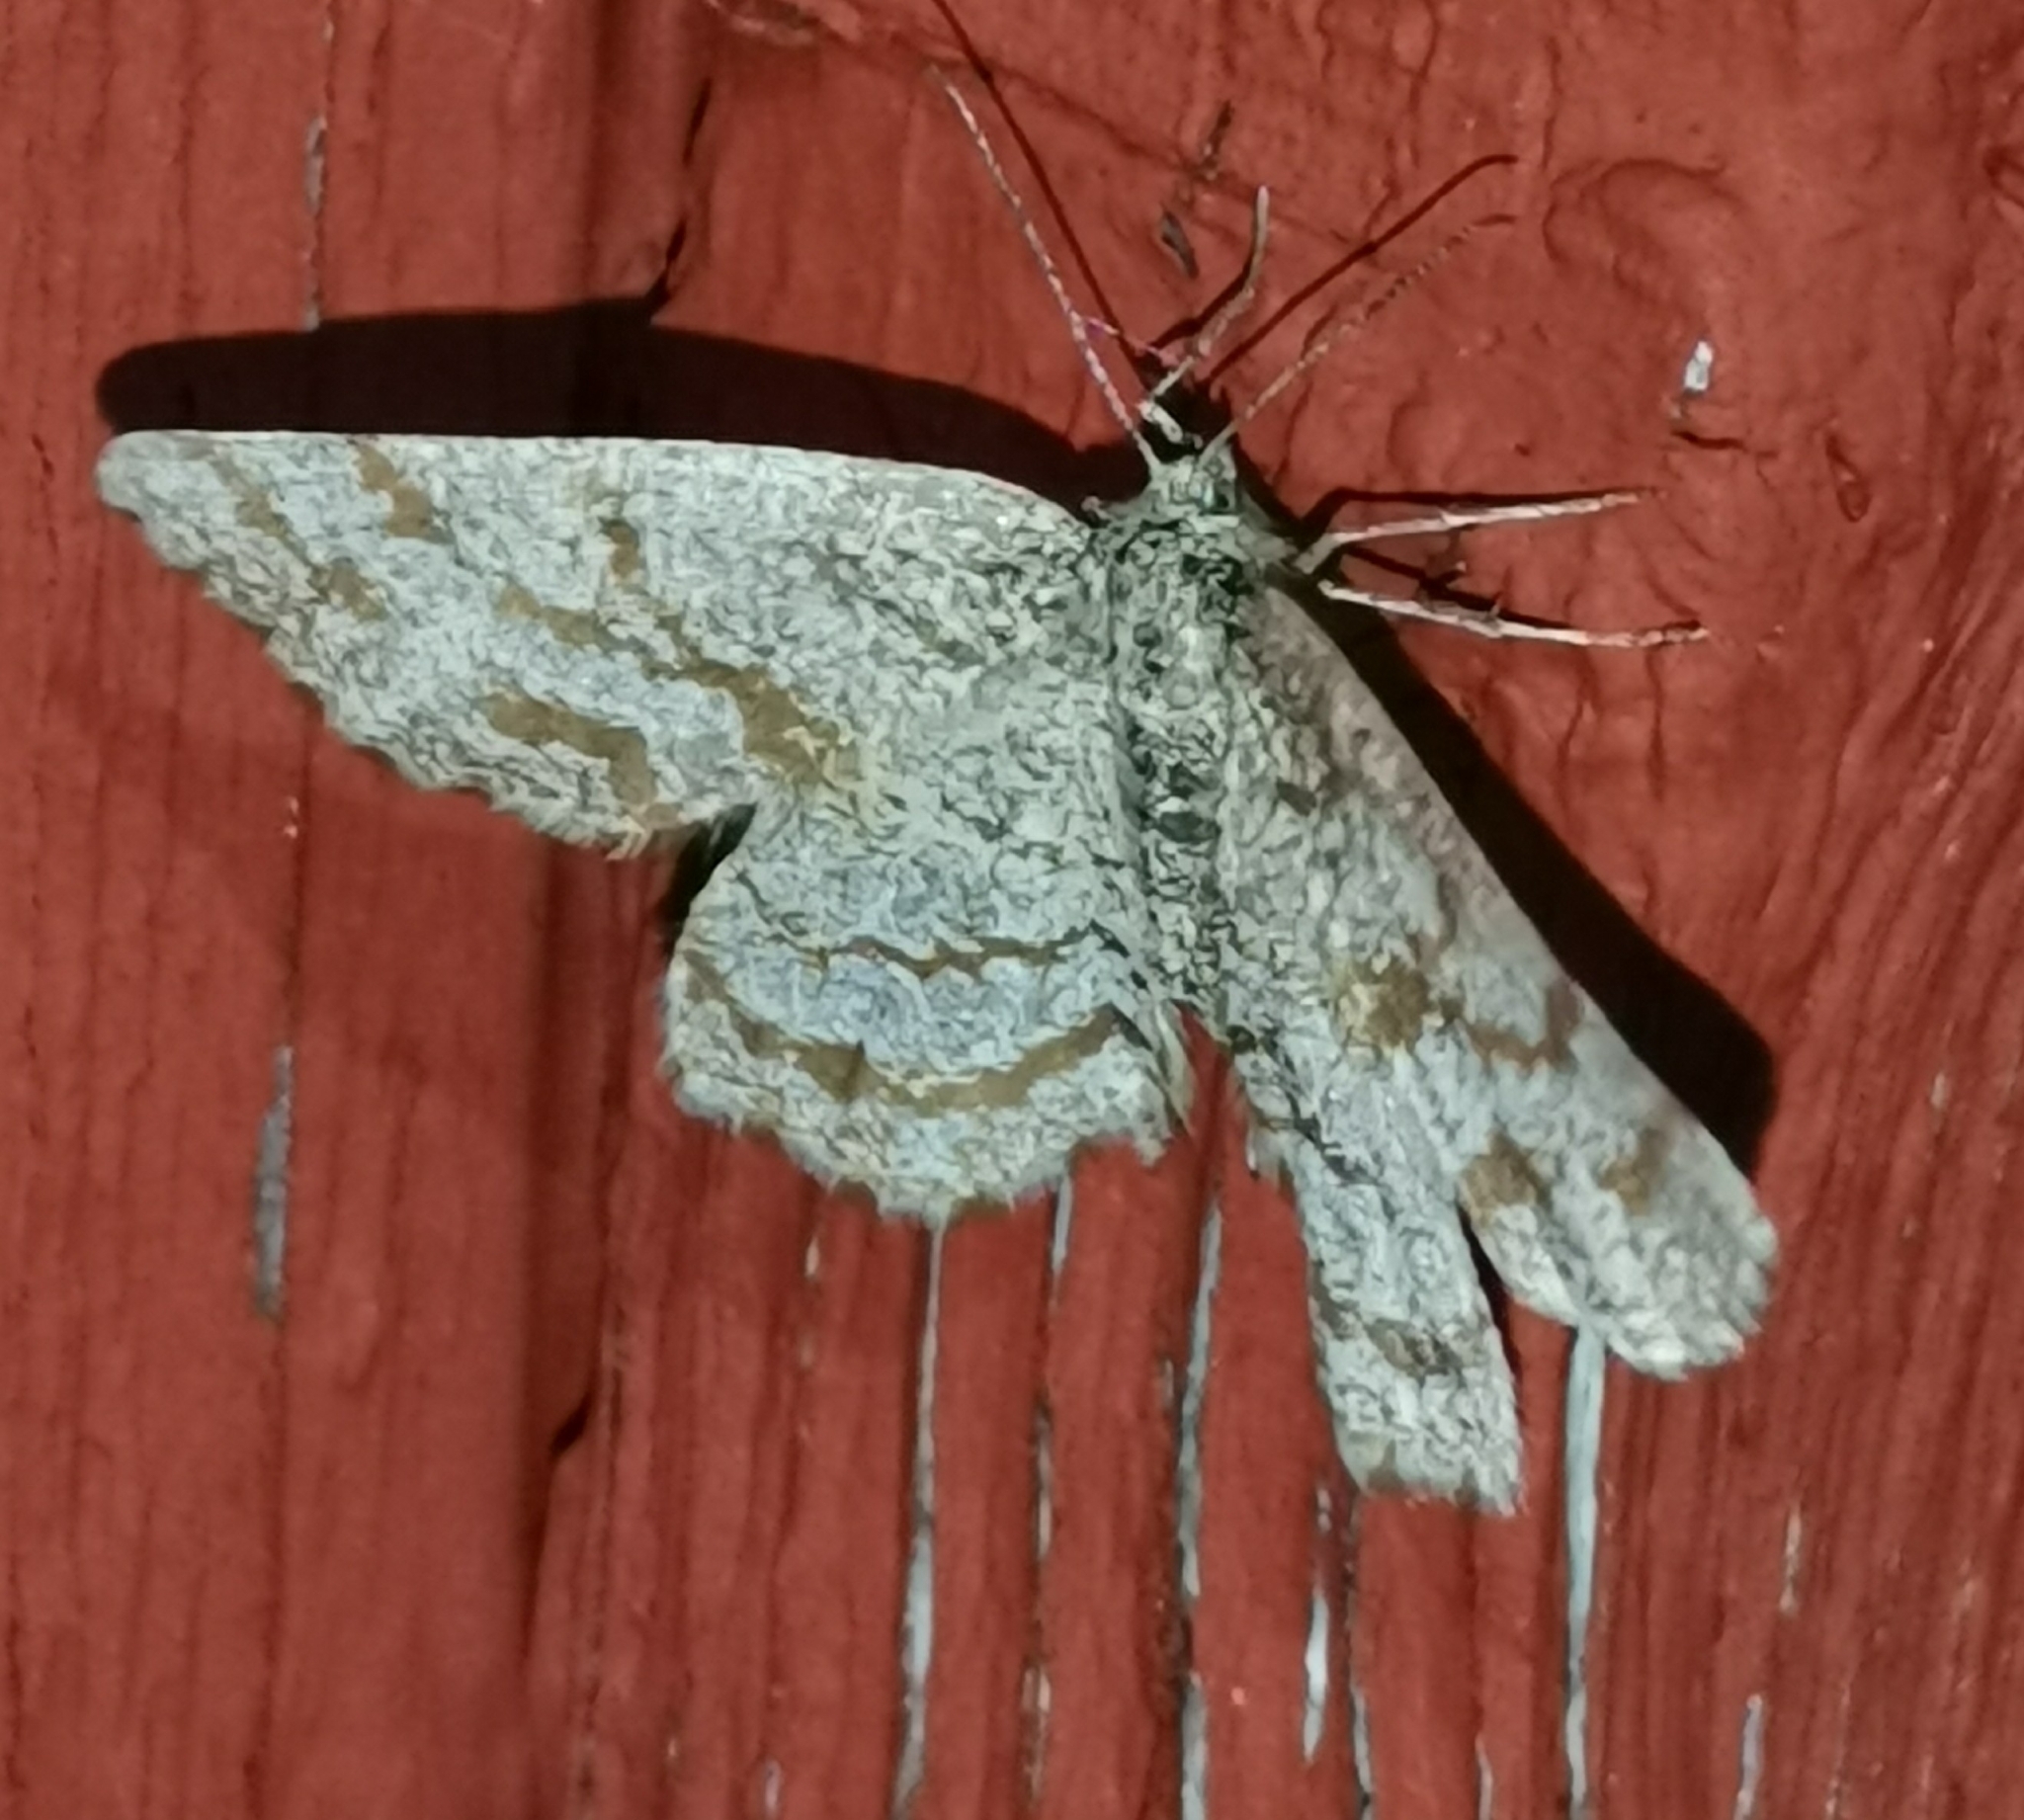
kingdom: Animalia
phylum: Arthropoda
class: Insecta
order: Lepidoptera
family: Geometridae
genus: Ematurga
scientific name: Ematurga atomaria
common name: Common heath
